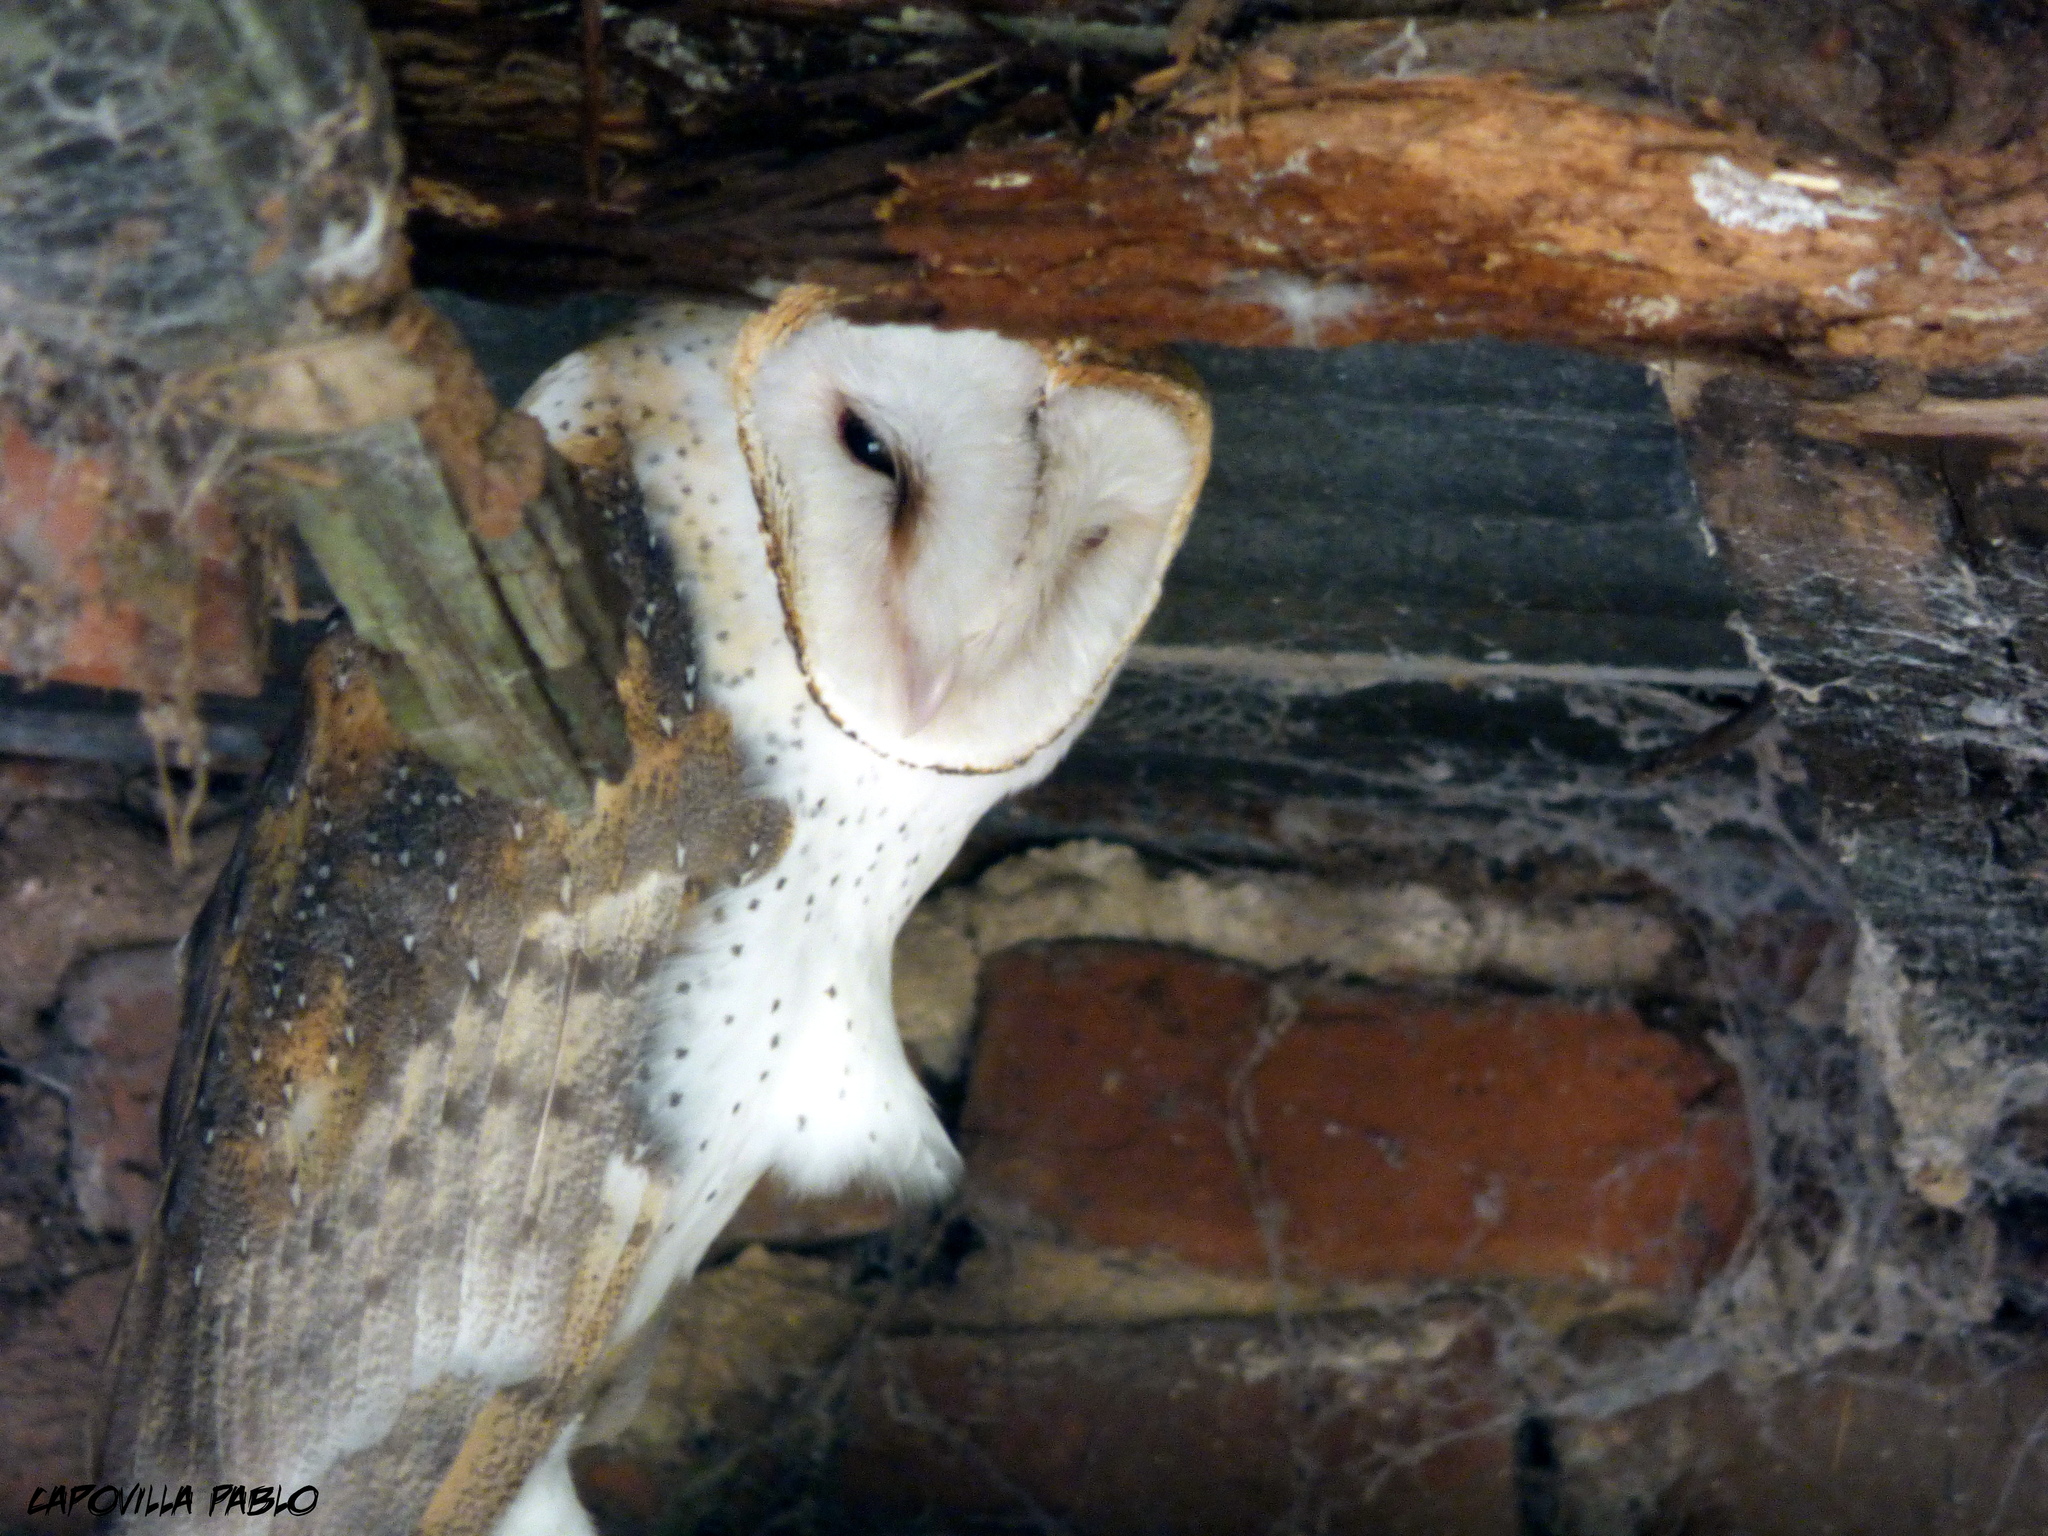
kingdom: Animalia
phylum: Chordata
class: Aves
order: Strigiformes
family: Tytonidae
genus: Tyto
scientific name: Tyto alba
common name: Barn owl
